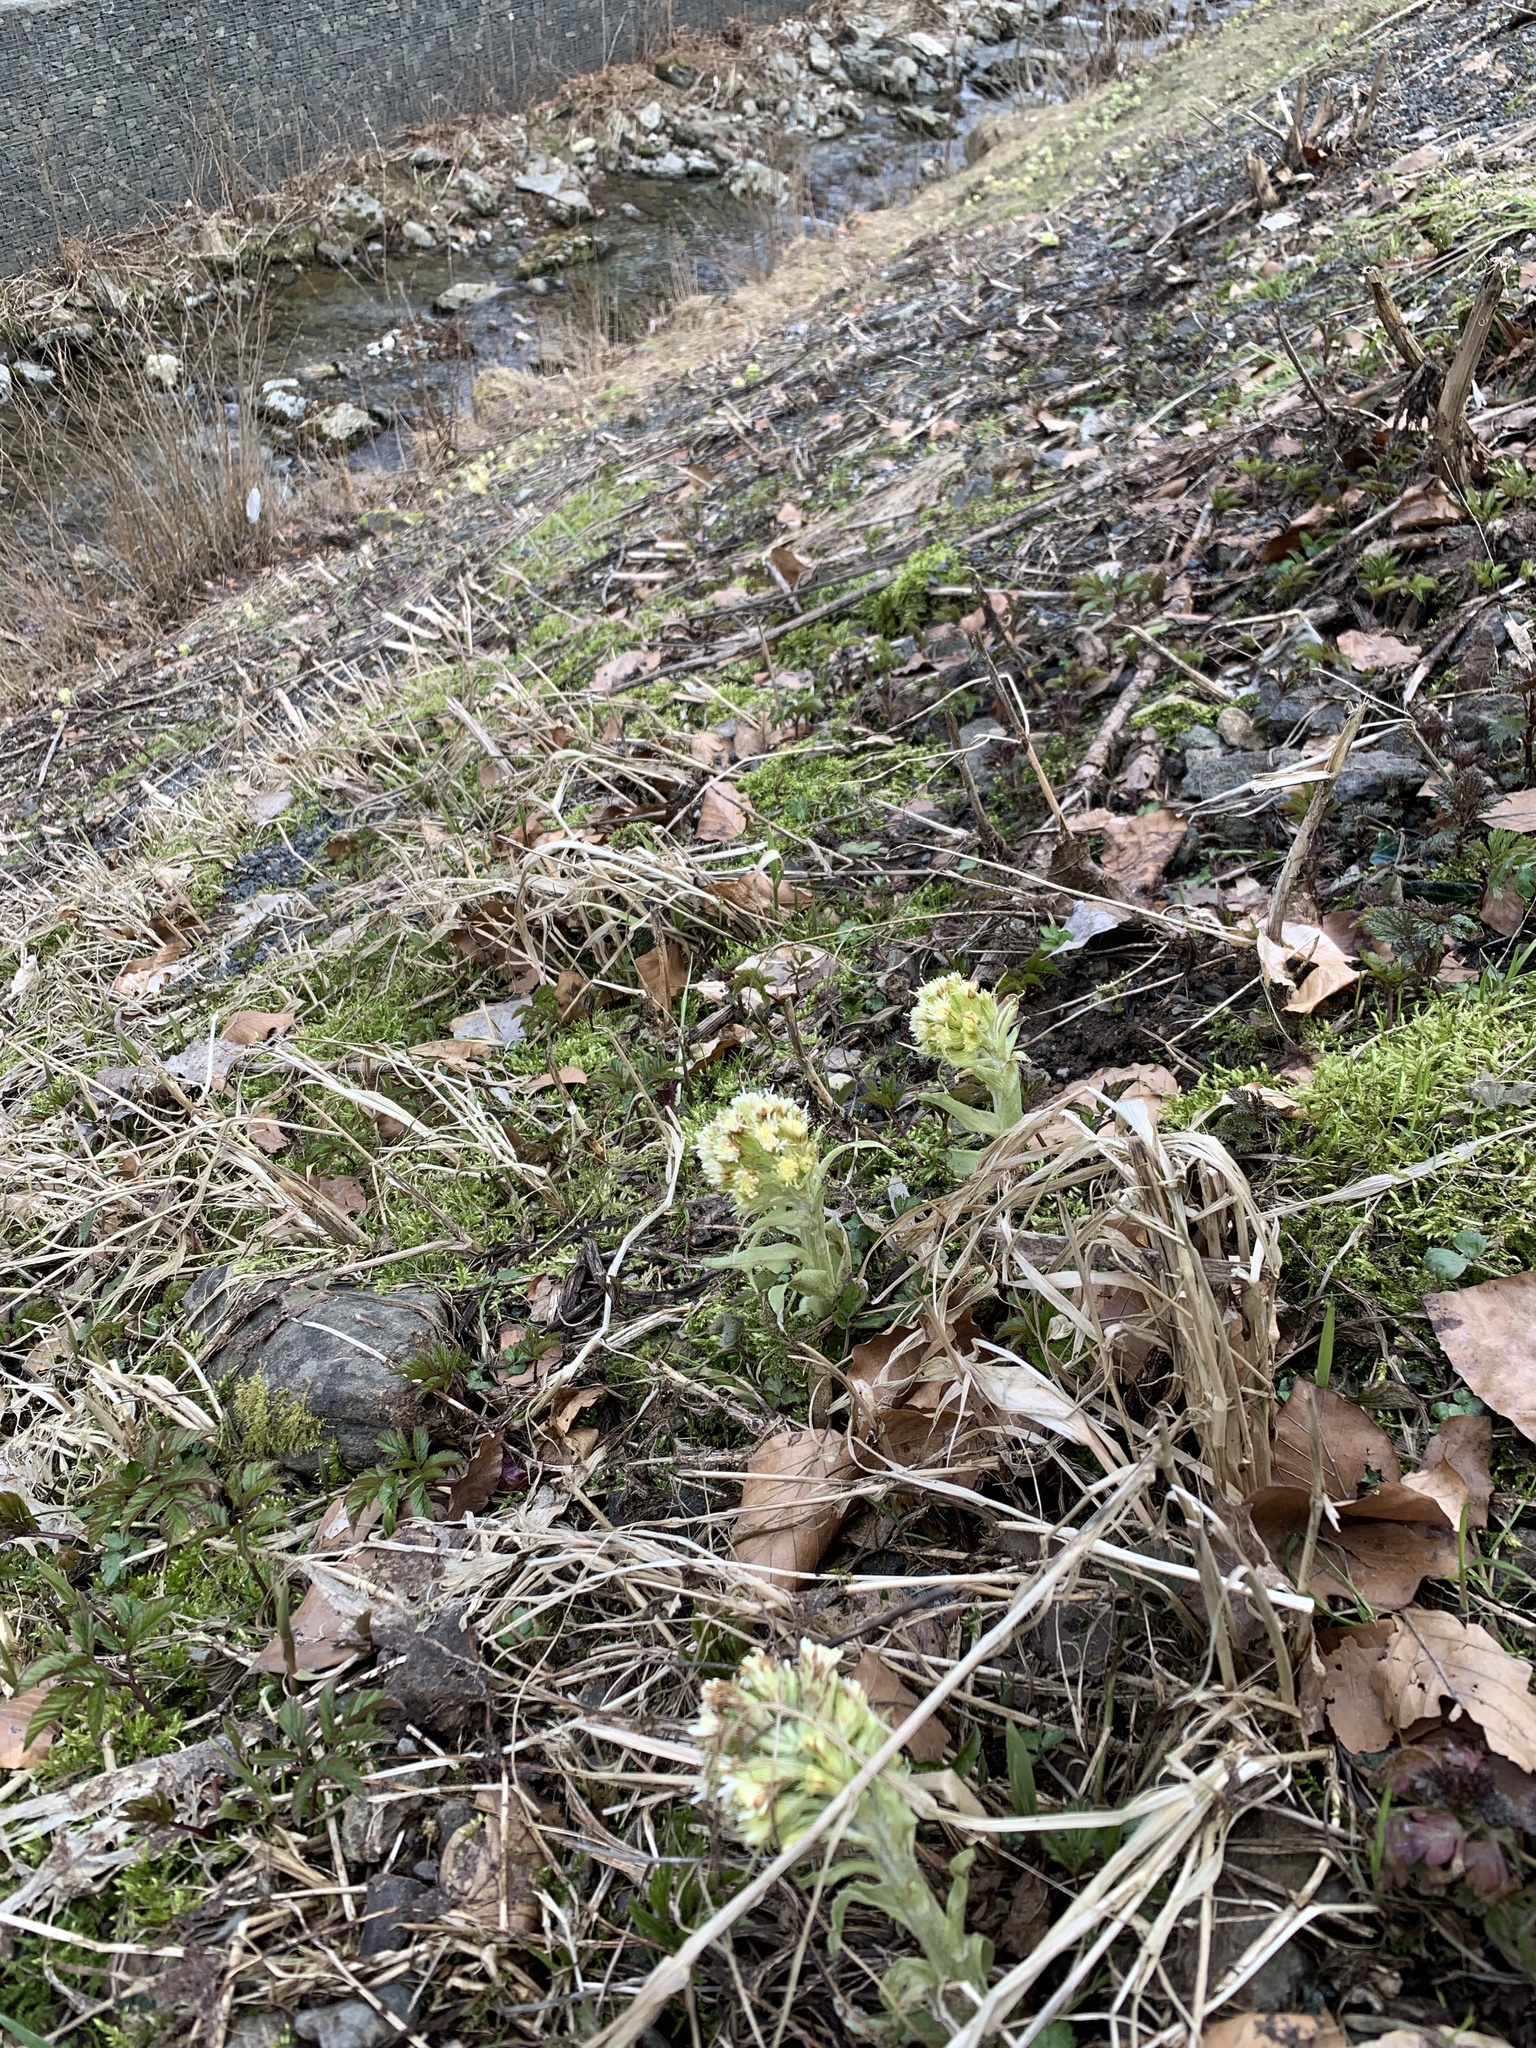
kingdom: Plantae
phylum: Tracheophyta
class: Magnoliopsida
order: Asterales
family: Asteraceae
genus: Petasites
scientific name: Petasites albus
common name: White butterbur
